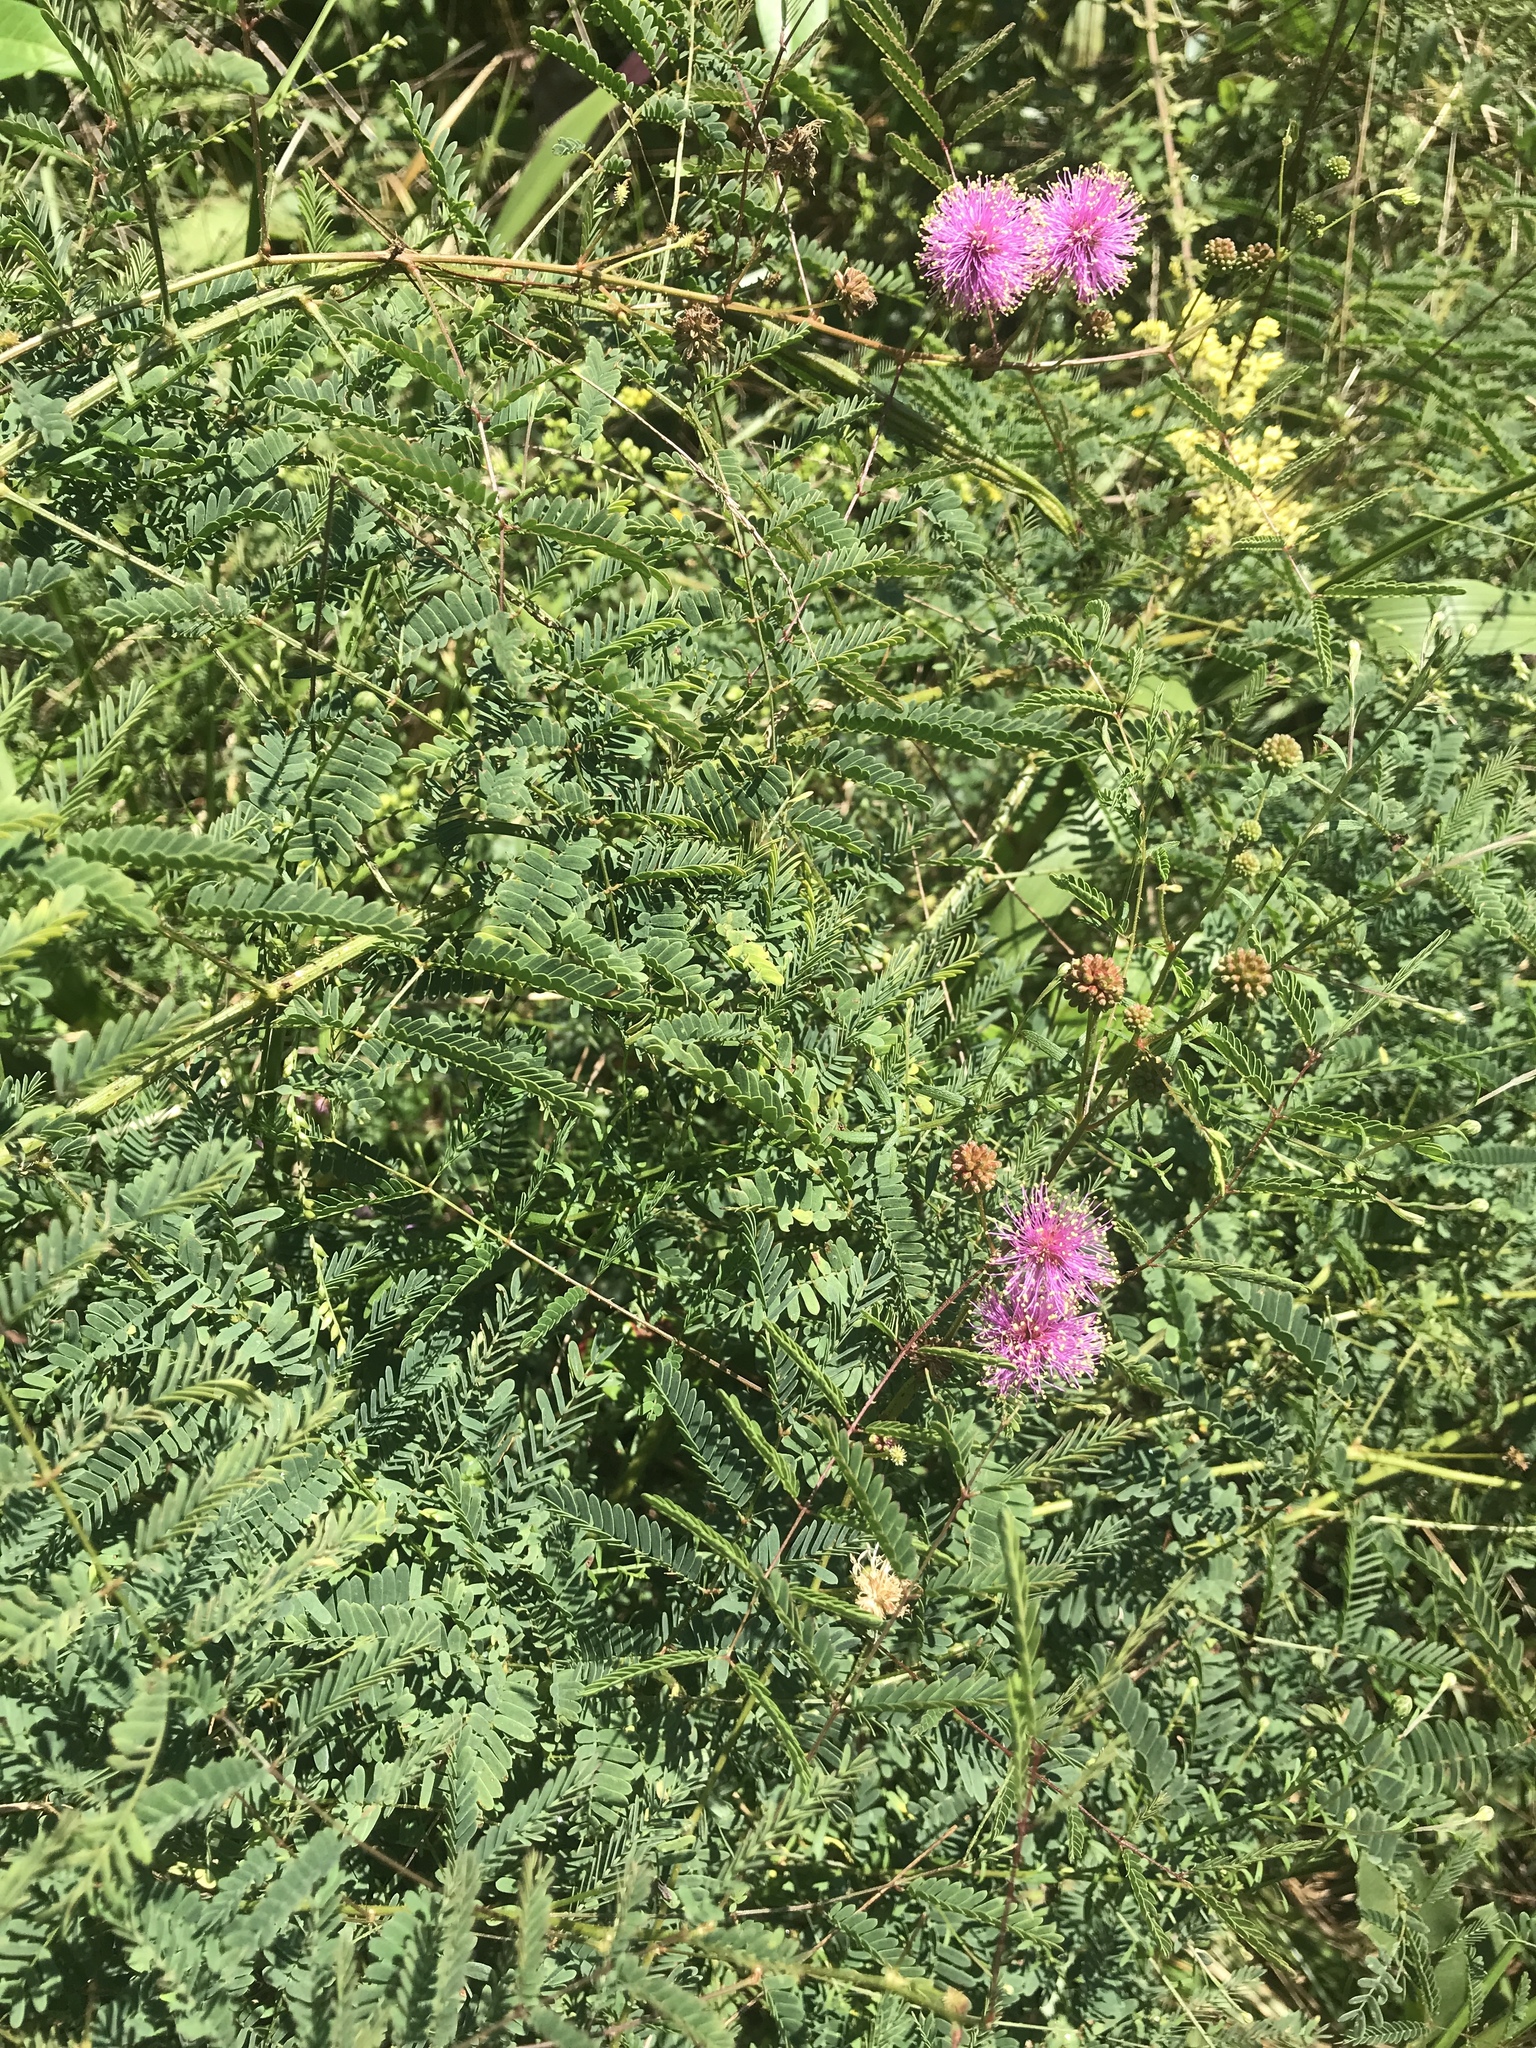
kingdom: Plantae
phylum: Tracheophyta
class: Magnoliopsida
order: Fabales
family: Fabaceae
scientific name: Fabaceae
